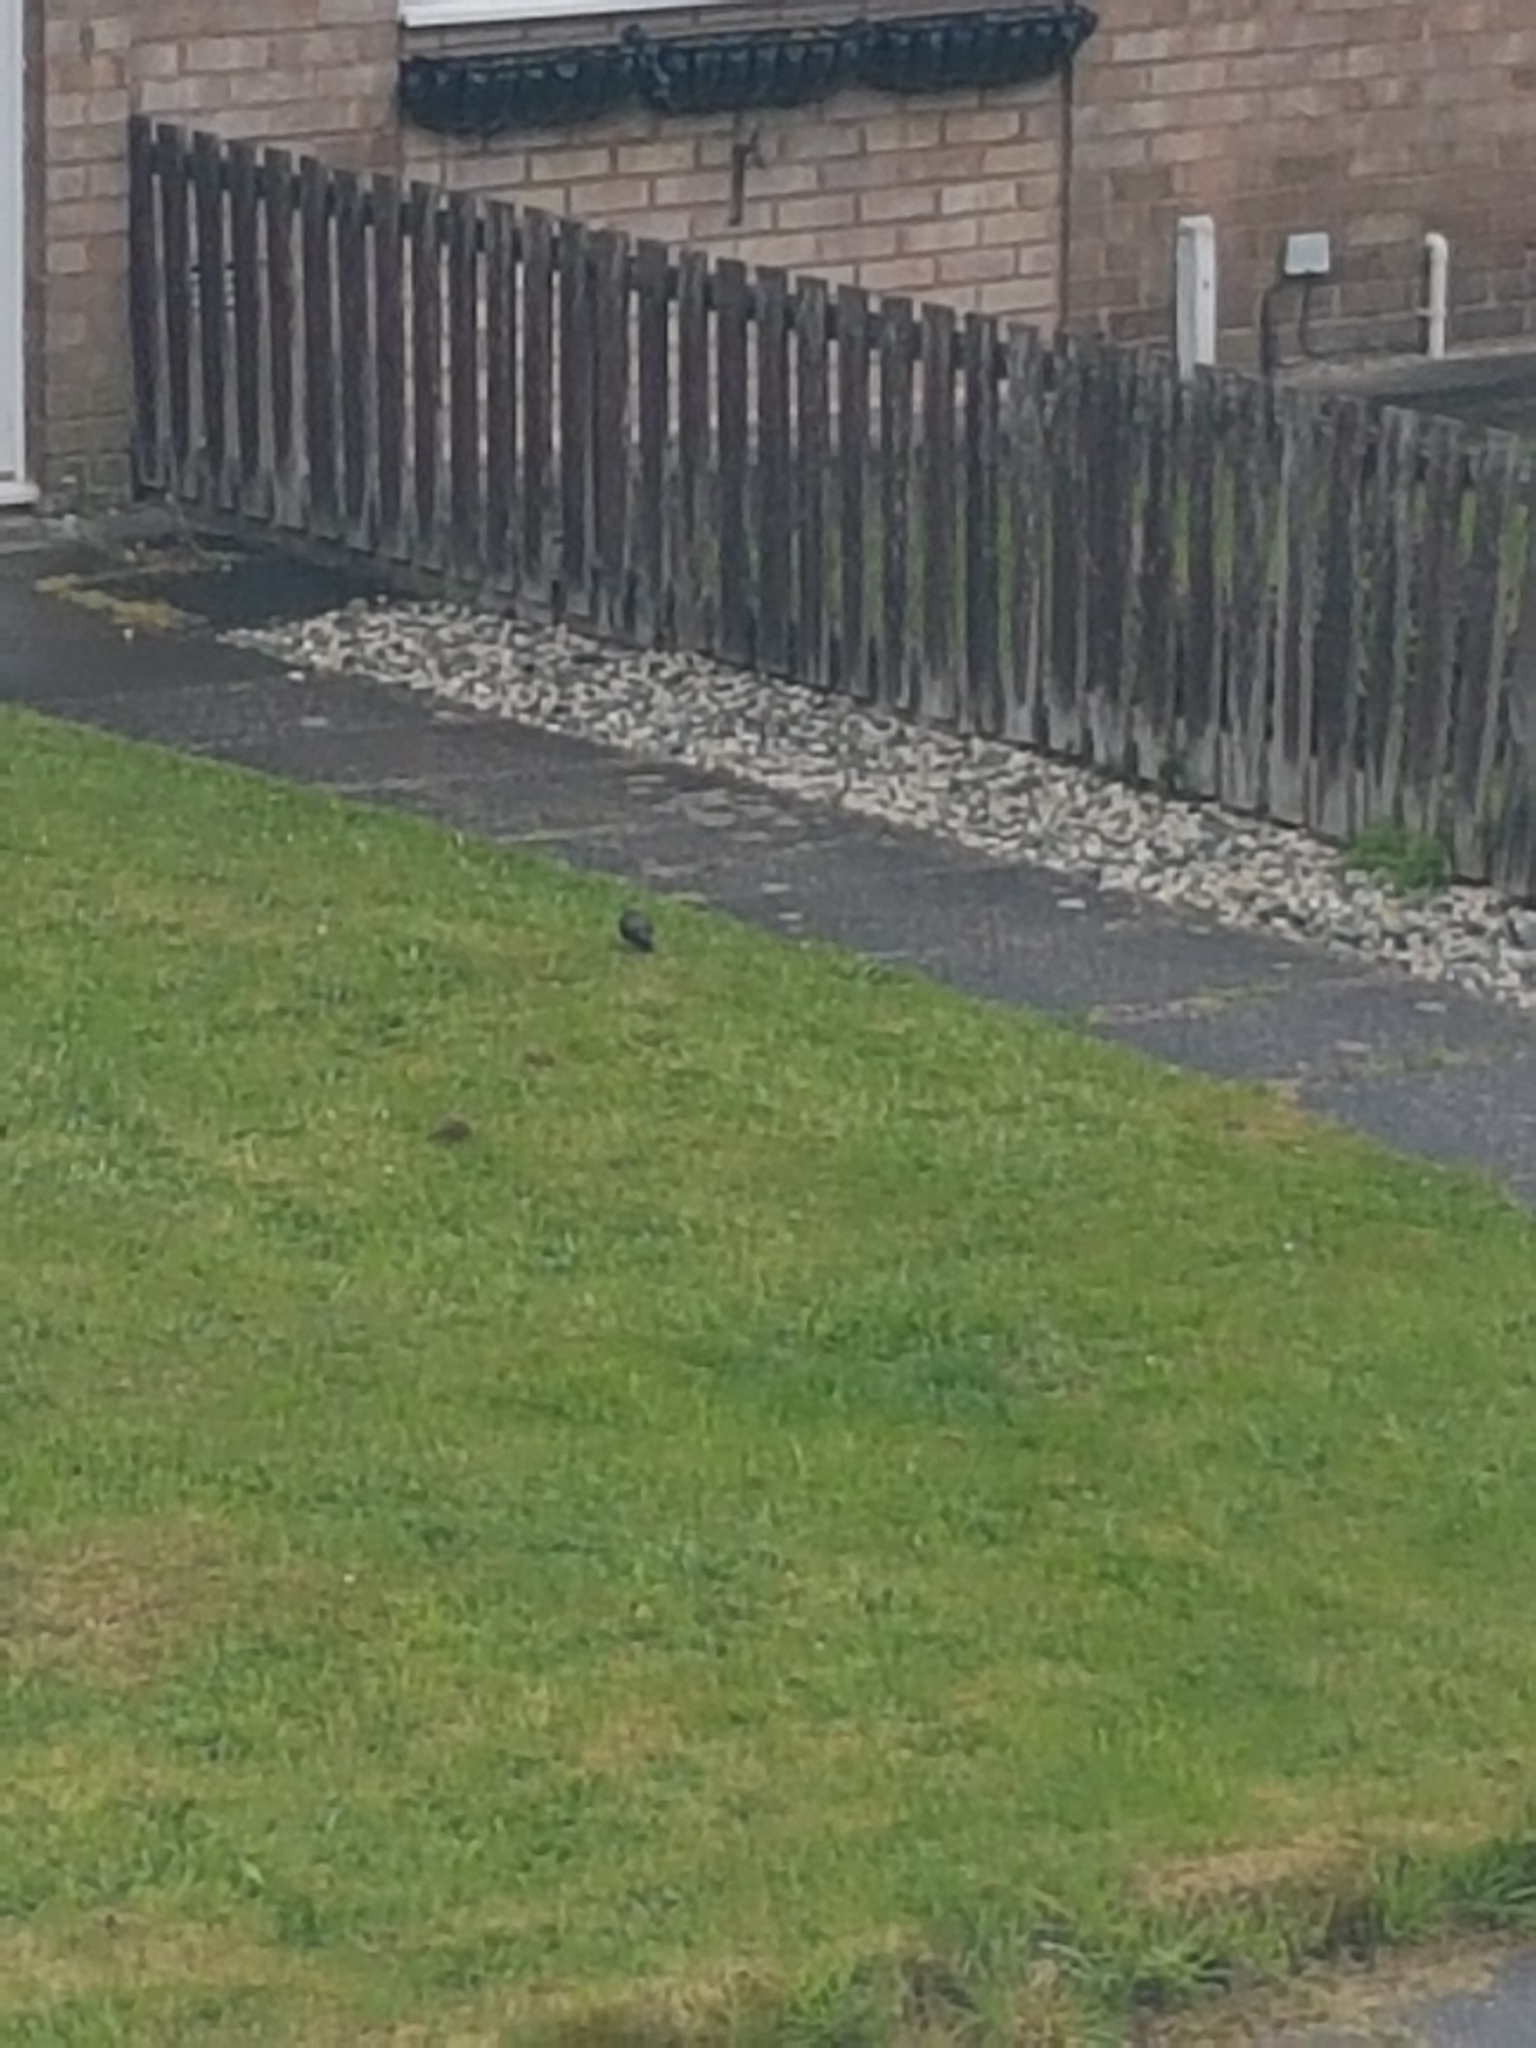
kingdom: Animalia
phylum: Chordata
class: Aves
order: Passeriformes
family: Sturnidae
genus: Sturnus
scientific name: Sturnus vulgaris
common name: Common starling
